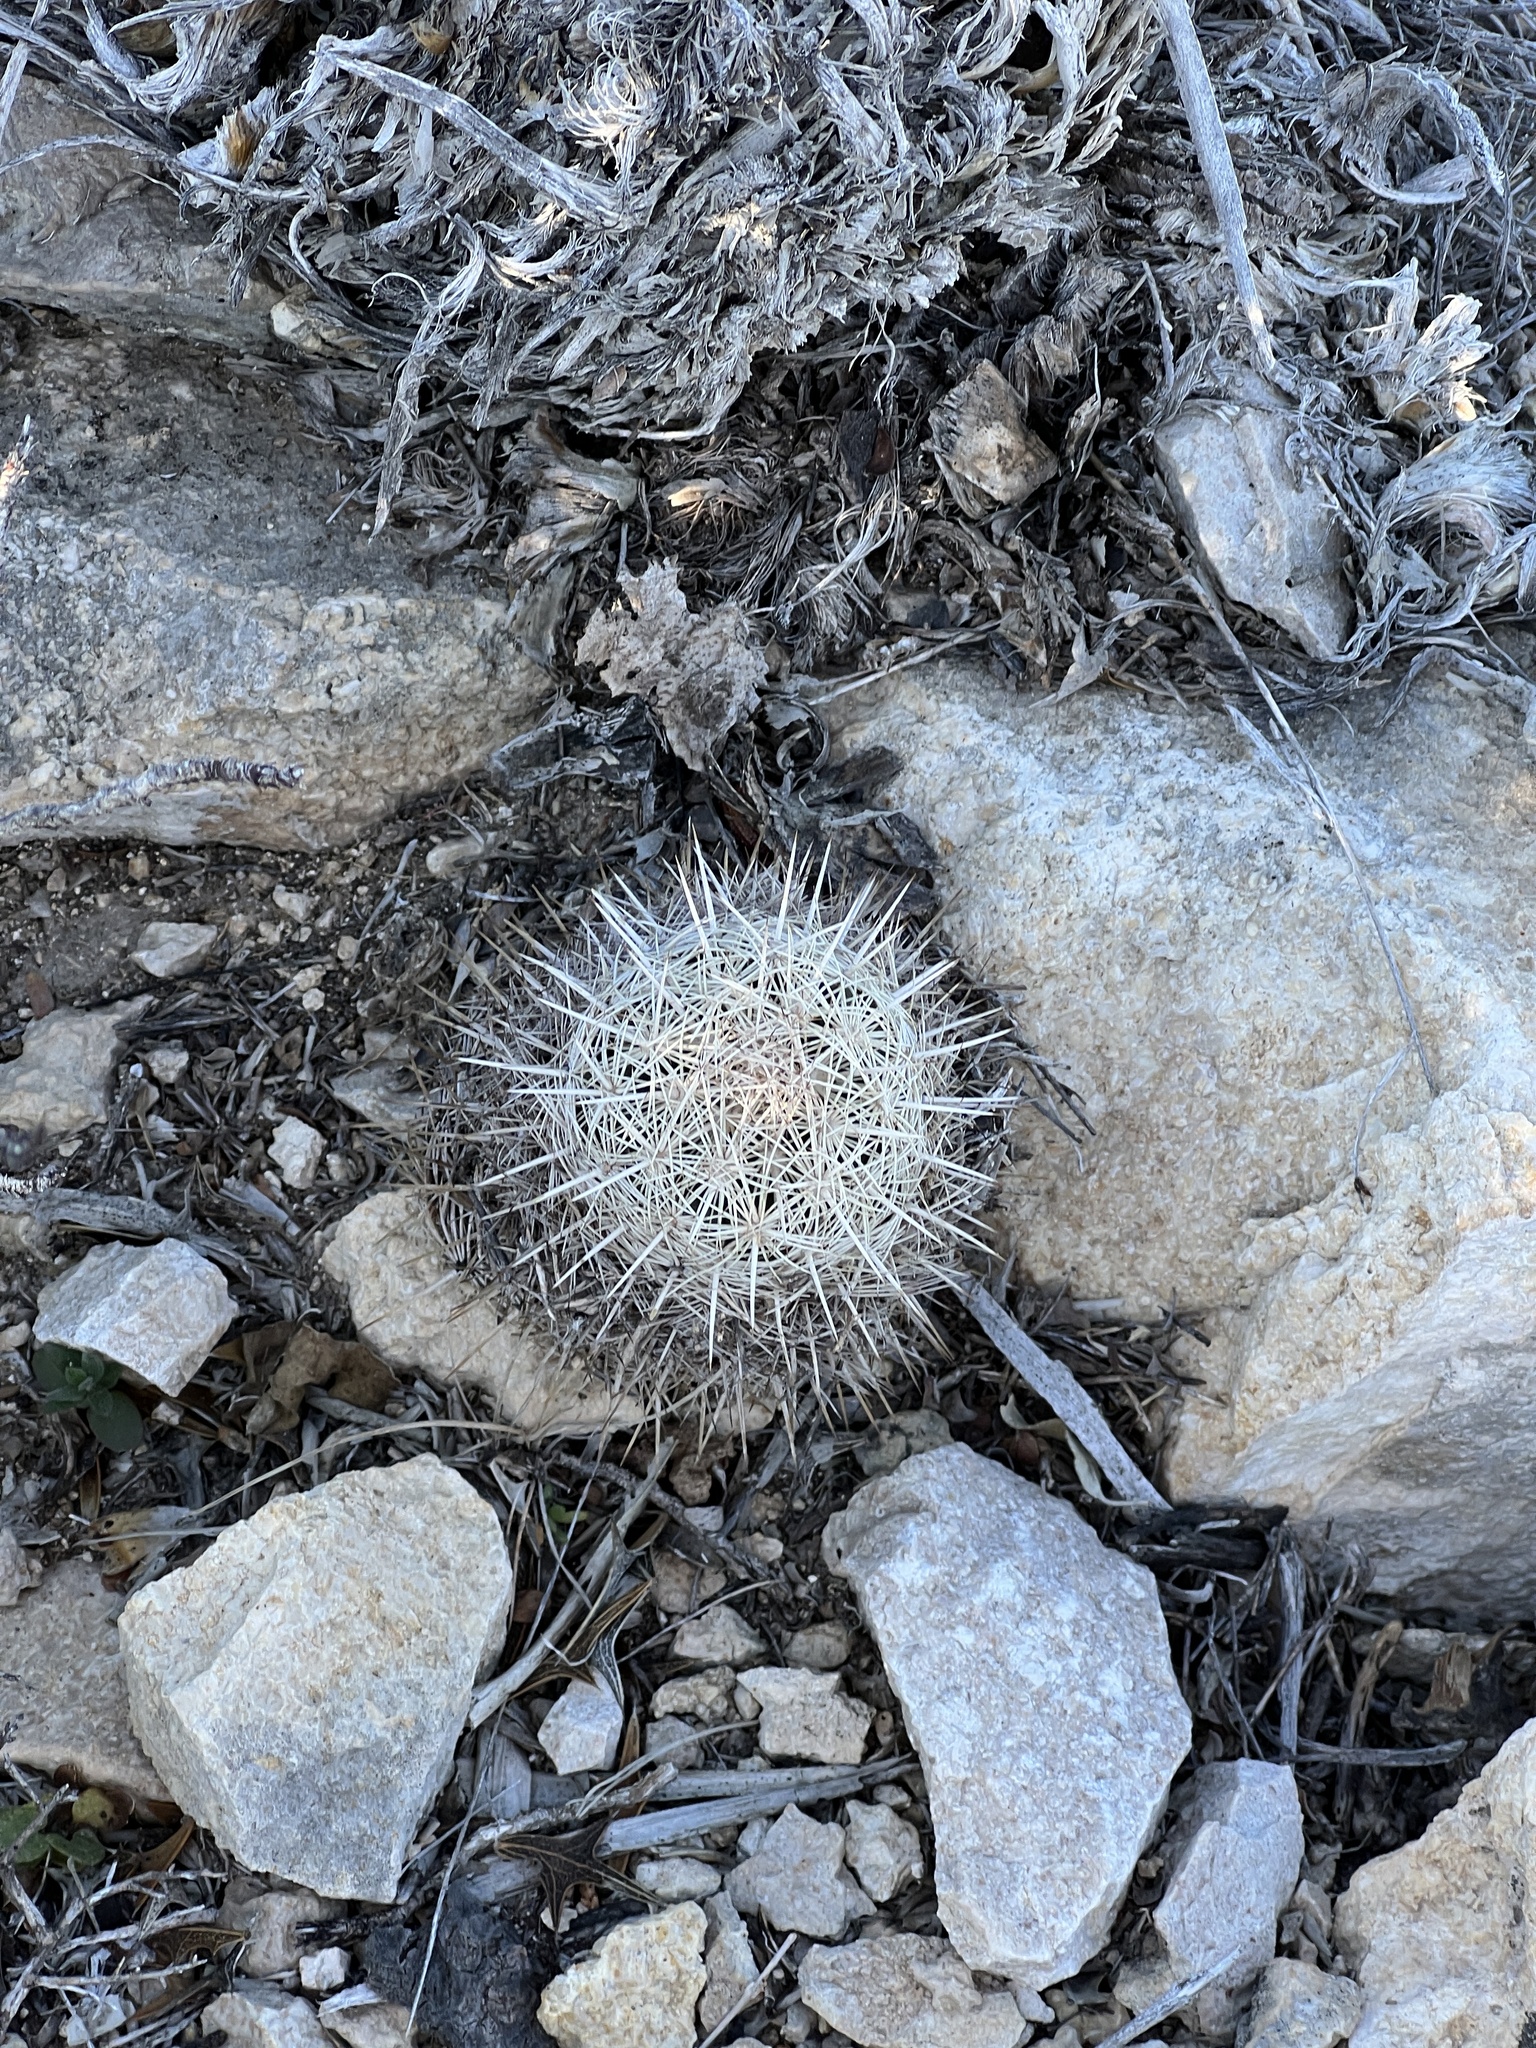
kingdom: Plantae
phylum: Tracheophyta
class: Magnoliopsida
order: Caryophyllales
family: Cactaceae
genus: Coryphantha
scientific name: Coryphantha echinus
